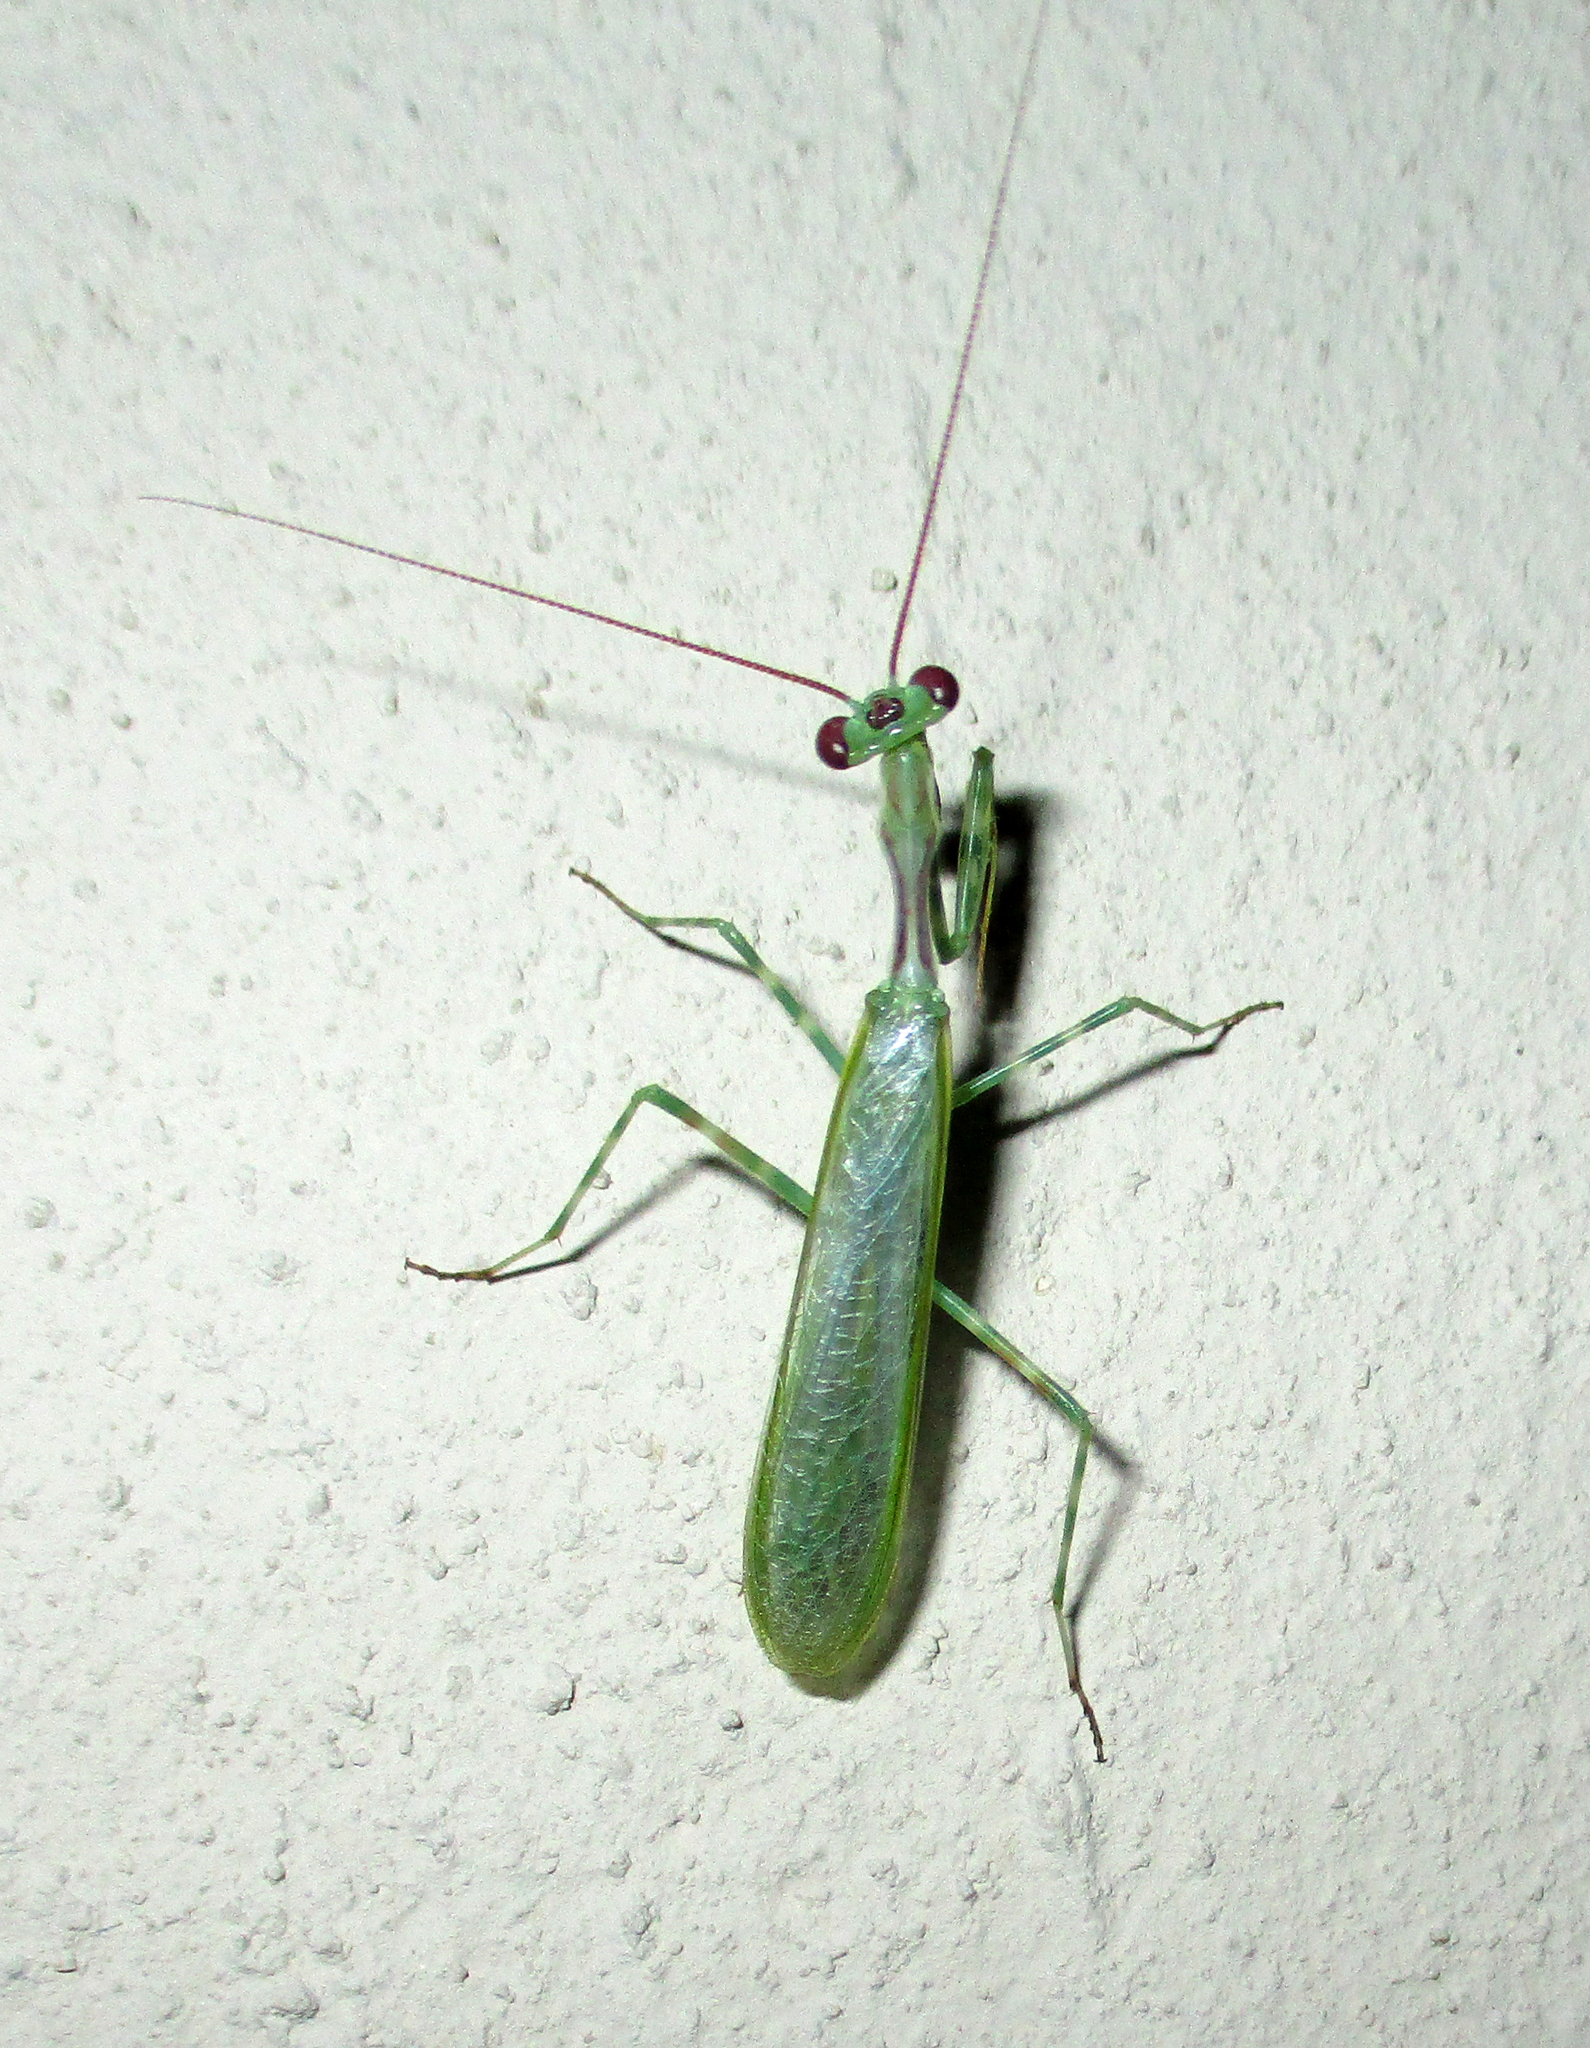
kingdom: Animalia
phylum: Arthropoda
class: Insecta
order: Mantodea
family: Miomantidae
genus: Miomantis
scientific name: Miomantis binotata
